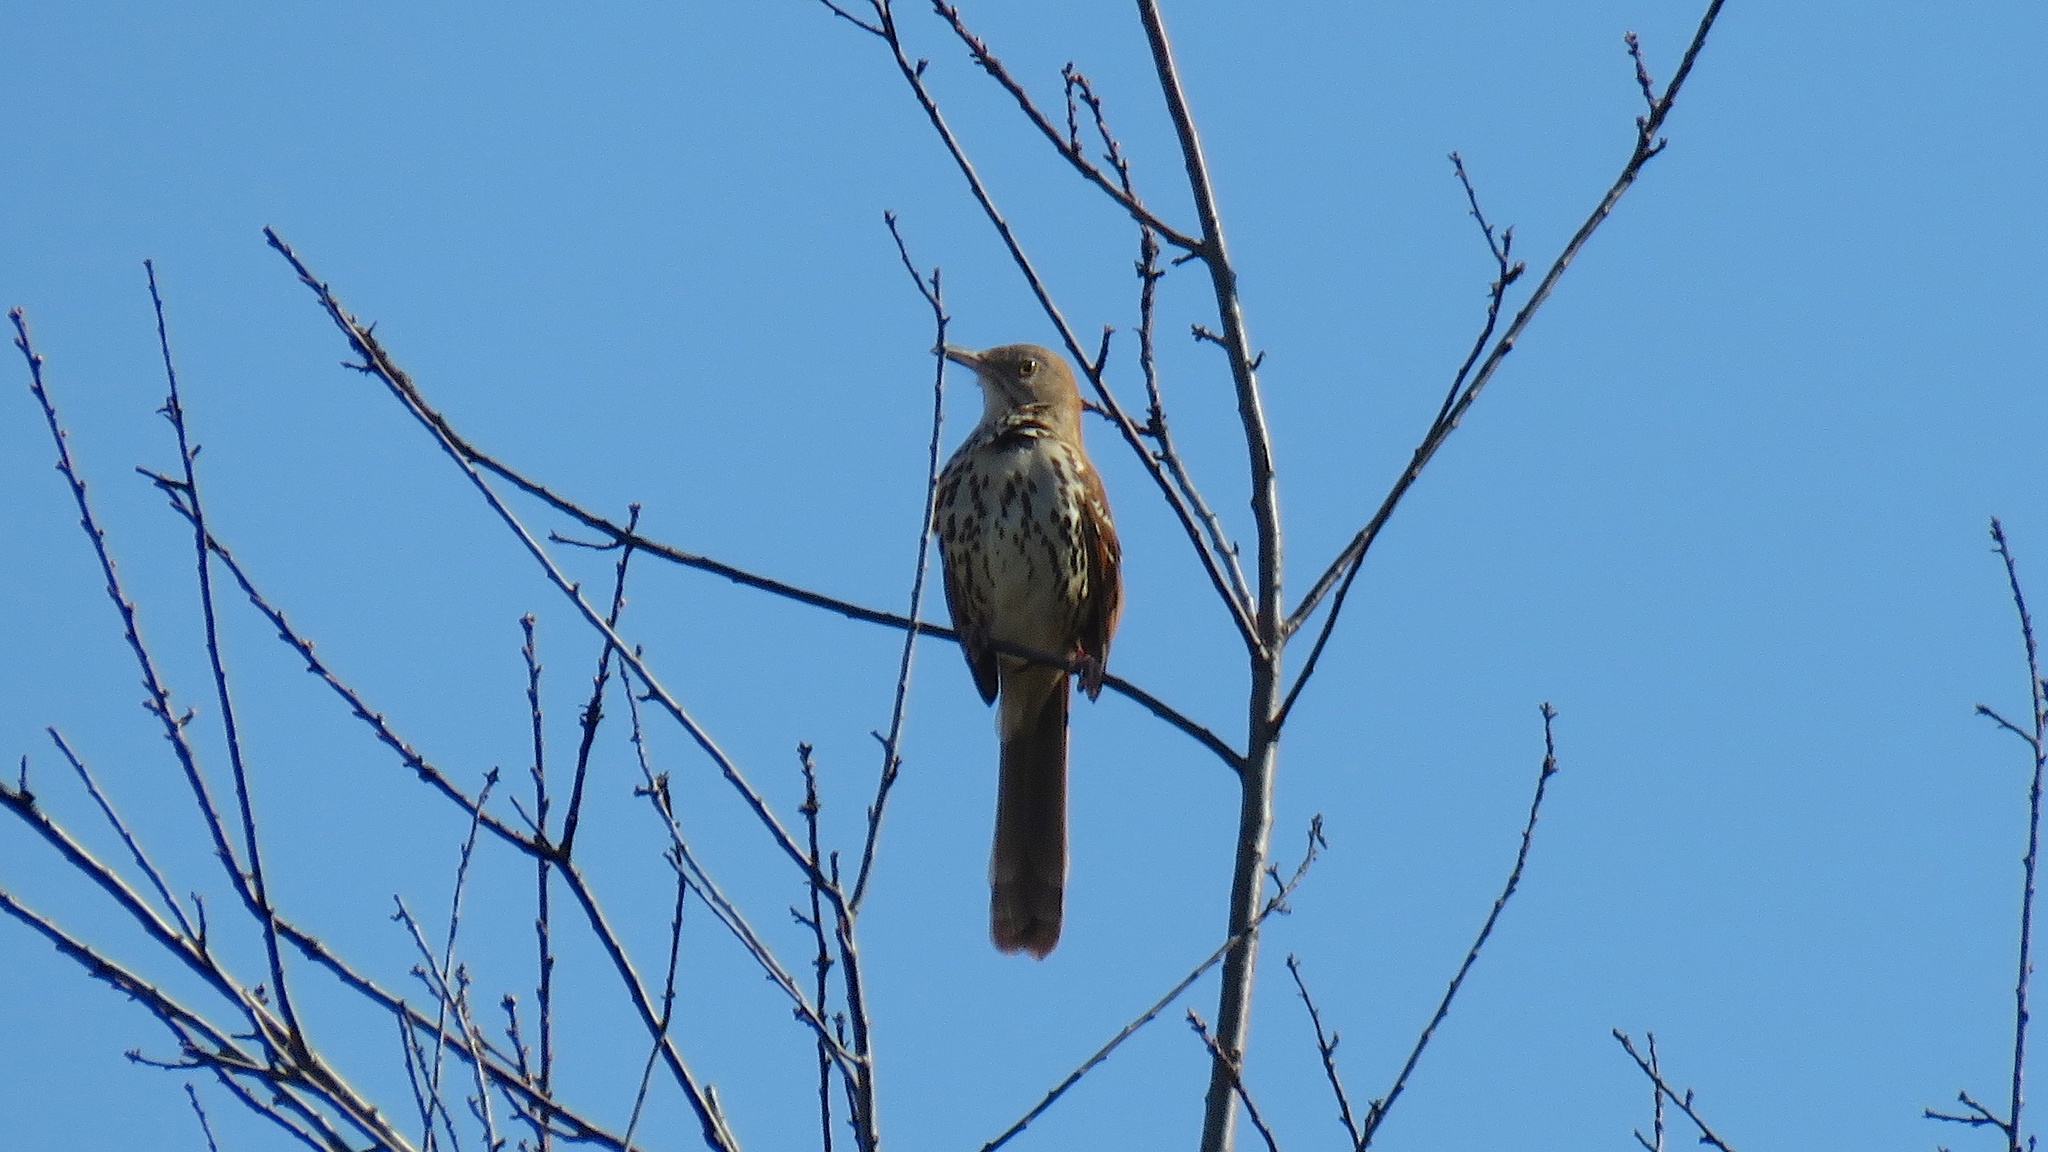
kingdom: Animalia
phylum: Chordata
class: Aves
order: Passeriformes
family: Mimidae
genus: Toxostoma
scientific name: Toxostoma rufum
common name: Brown thrasher
